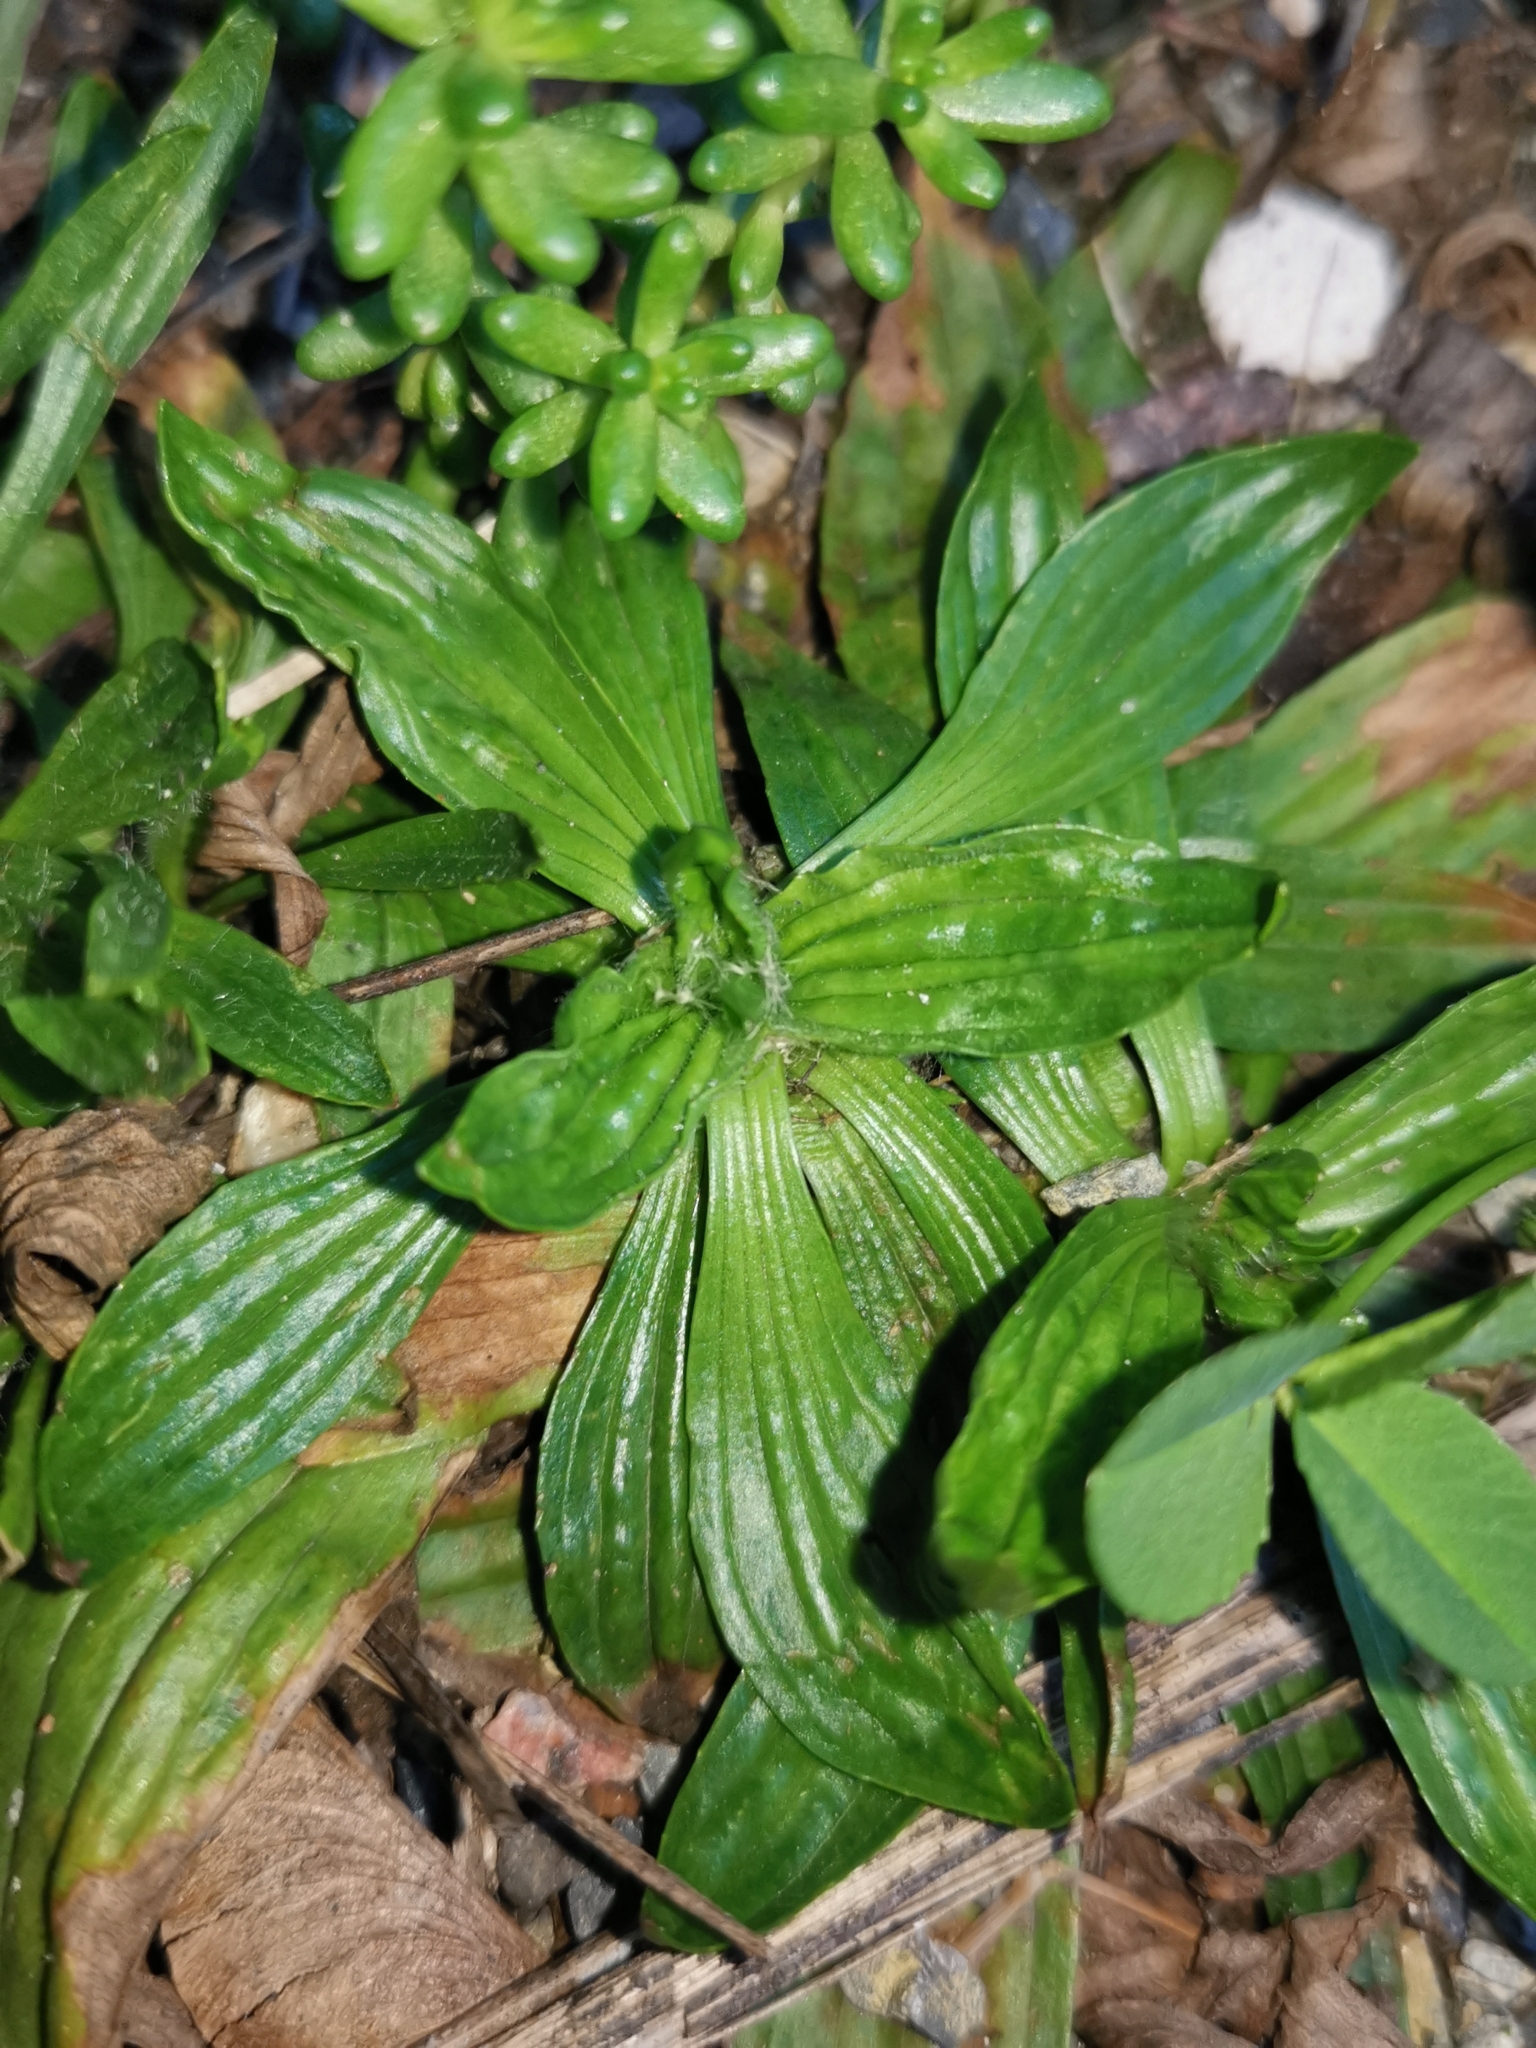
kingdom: Plantae
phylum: Tracheophyta
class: Magnoliopsida
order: Lamiales
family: Plantaginaceae
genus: Plantago
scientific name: Plantago lanceolata
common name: Ribwort plantain
